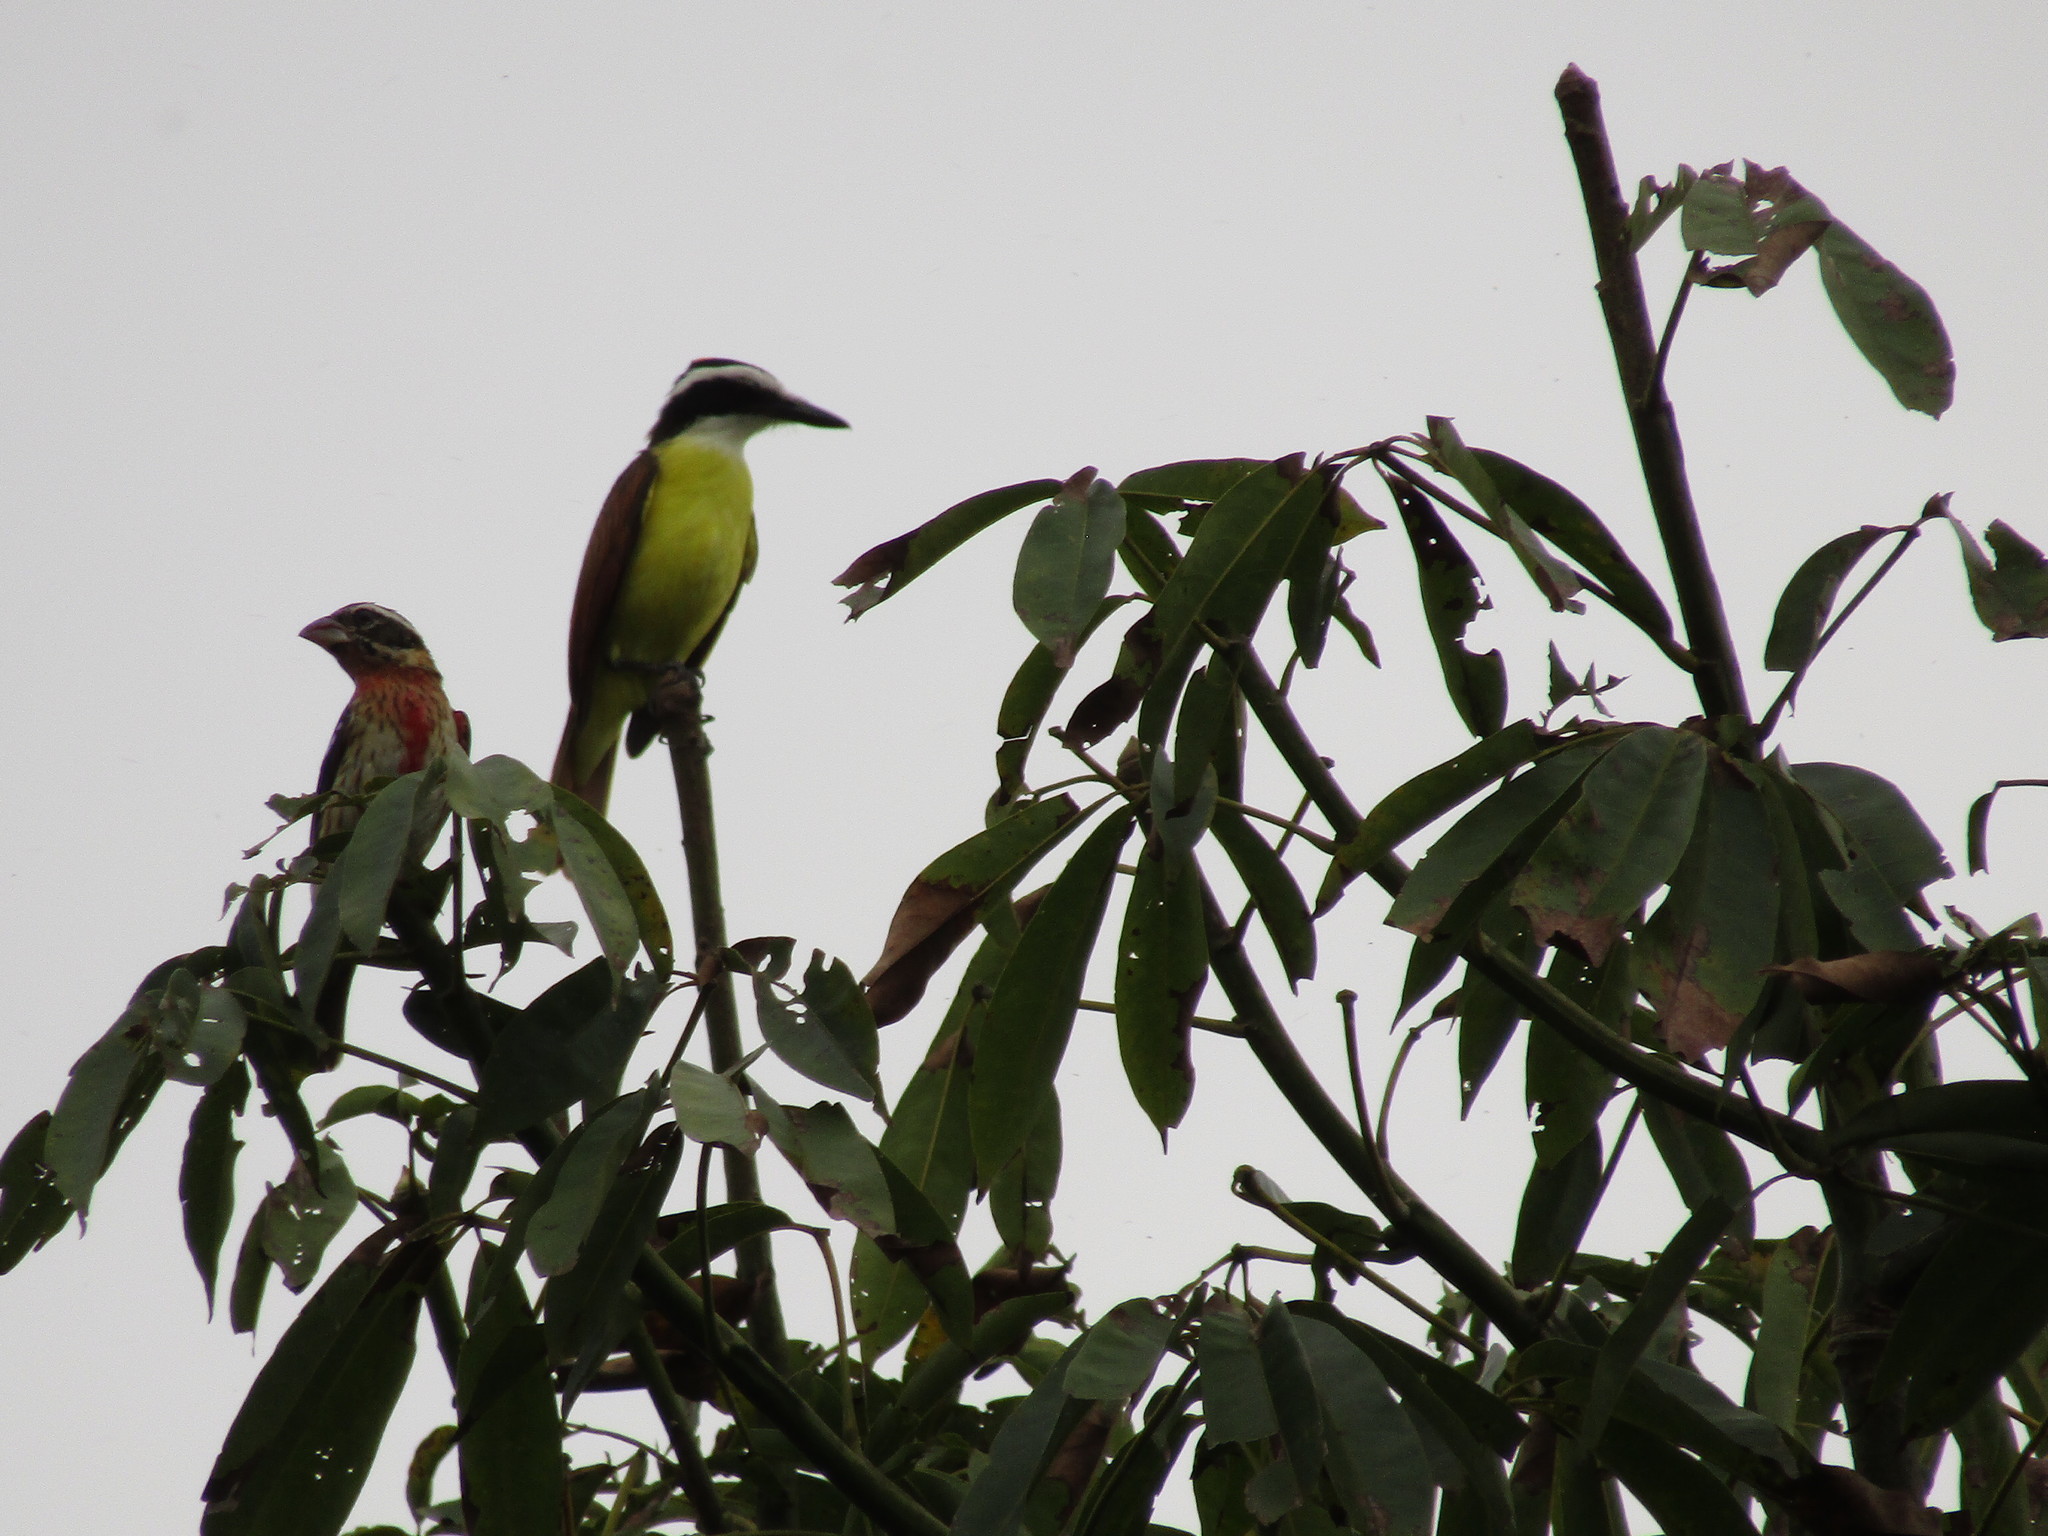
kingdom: Animalia
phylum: Chordata
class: Aves
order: Passeriformes
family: Tyrannidae
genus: Pitangus
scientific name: Pitangus sulphuratus
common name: Great kiskadee
